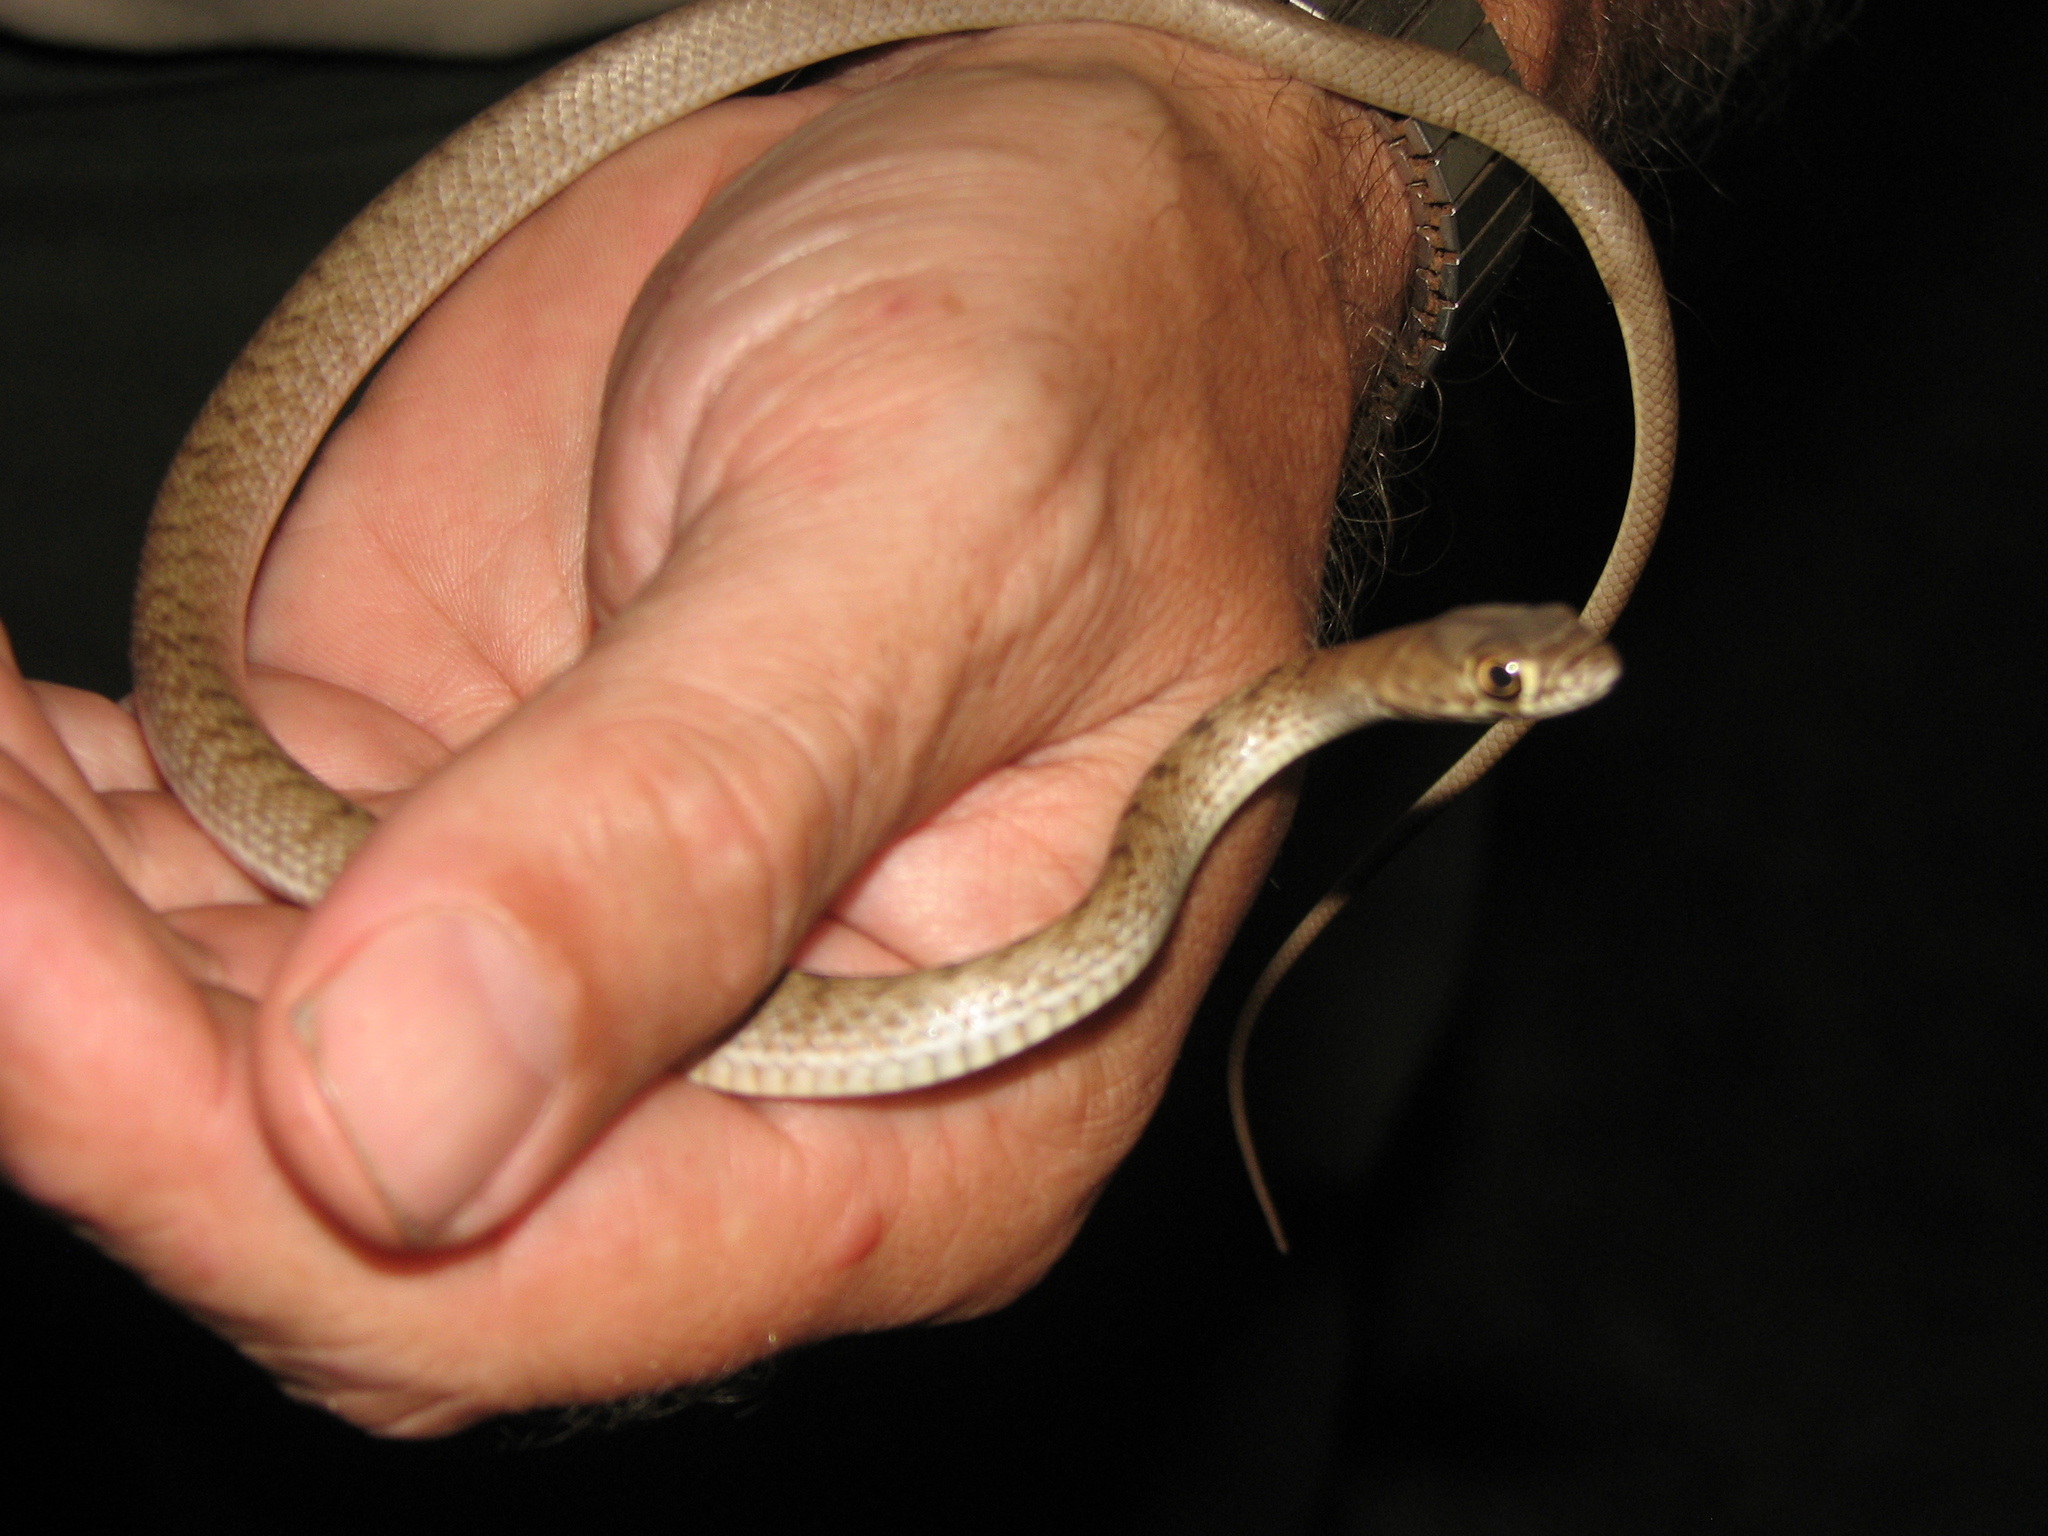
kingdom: Animalia
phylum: Chordata
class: Squamata
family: Colubridae
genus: Masticophis
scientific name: Masticophis flagellum
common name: Coachwhip
